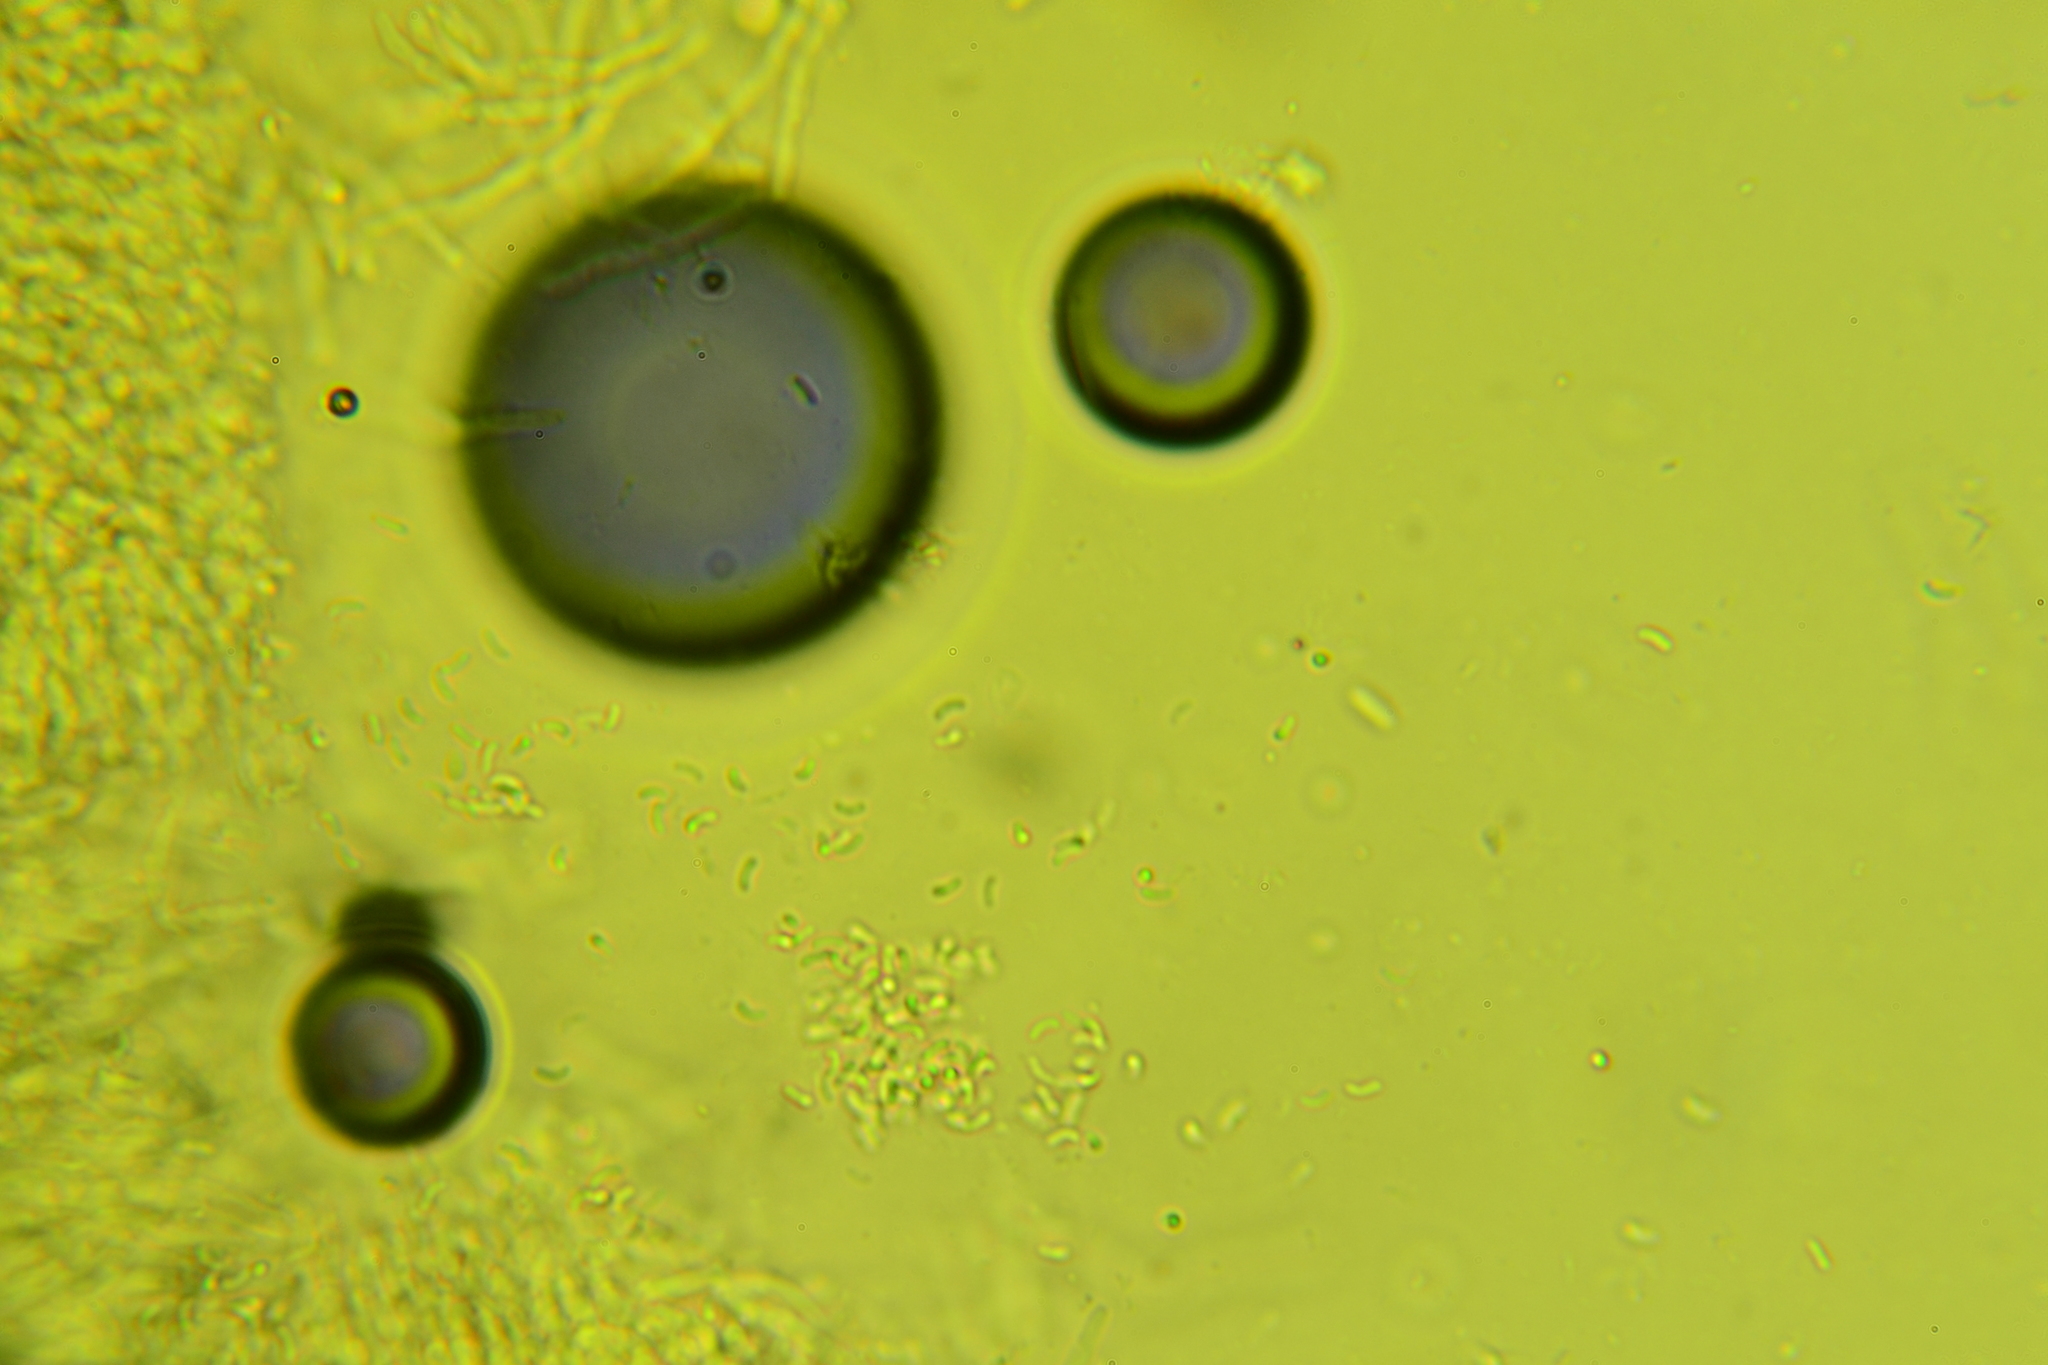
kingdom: Fungi
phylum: Basidiomycota
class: Agaricomycetes
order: Polyporales
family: Irpicaceae
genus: Ceriporia
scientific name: Ceriporia spissa
